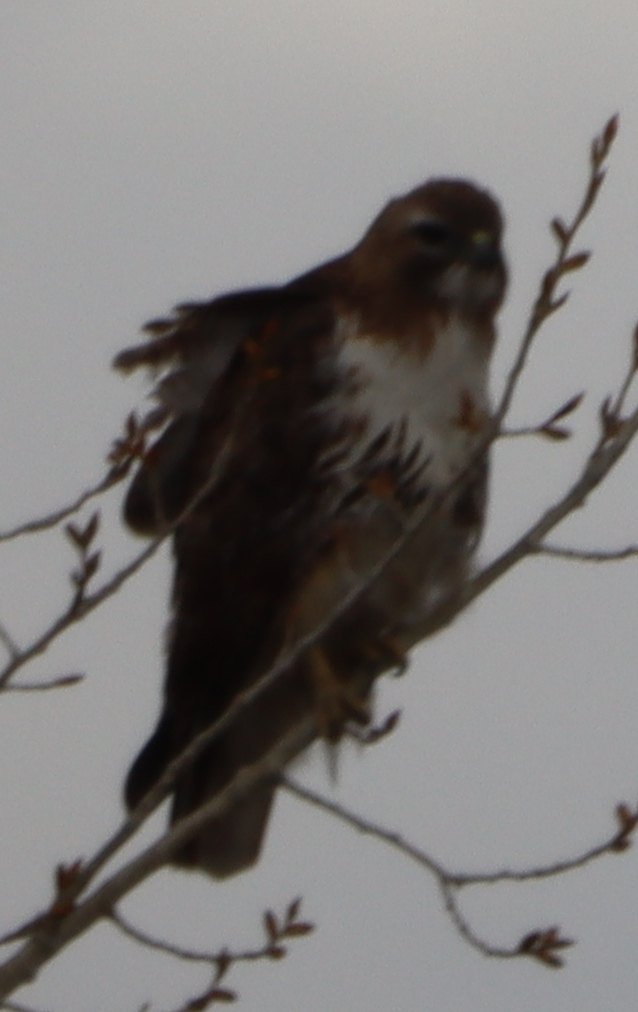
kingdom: Animalia
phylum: Chordata
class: Aves
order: Accipitriformes
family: Accipitridae
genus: Buteo
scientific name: Buteo jamaicensis
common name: Red-tailed hawk
